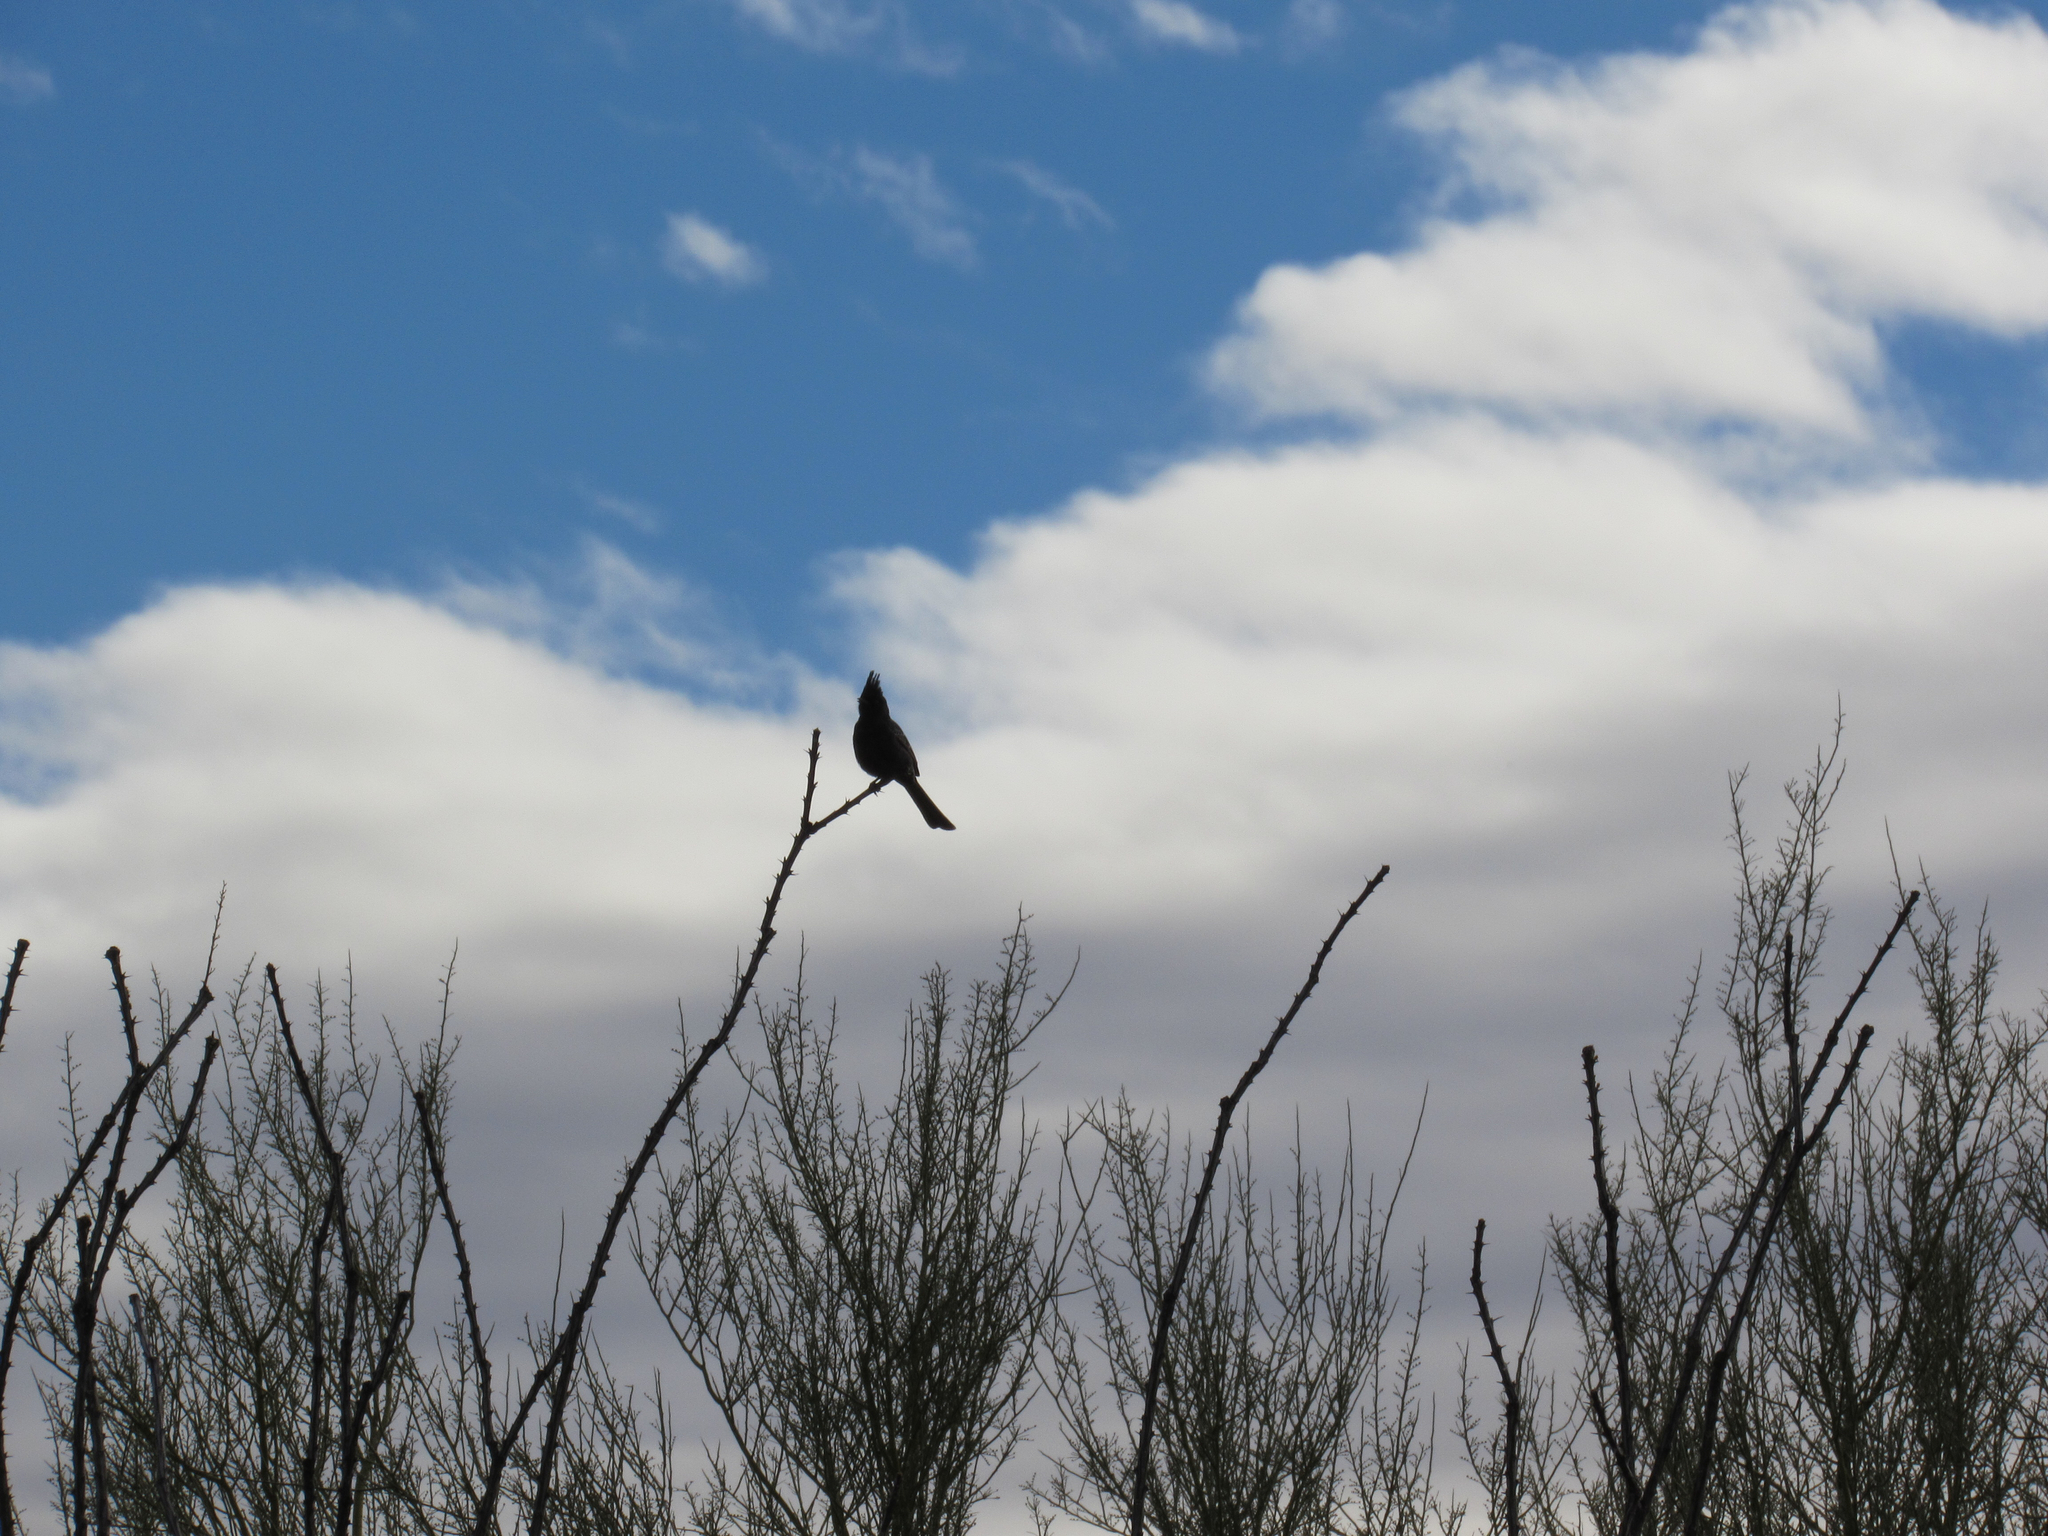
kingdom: Animalia
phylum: Chordata
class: Aves
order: Passeriformes
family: Ptilogonatidae
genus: Phainopepla
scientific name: Phainopepla nitens
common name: Phainopepla
